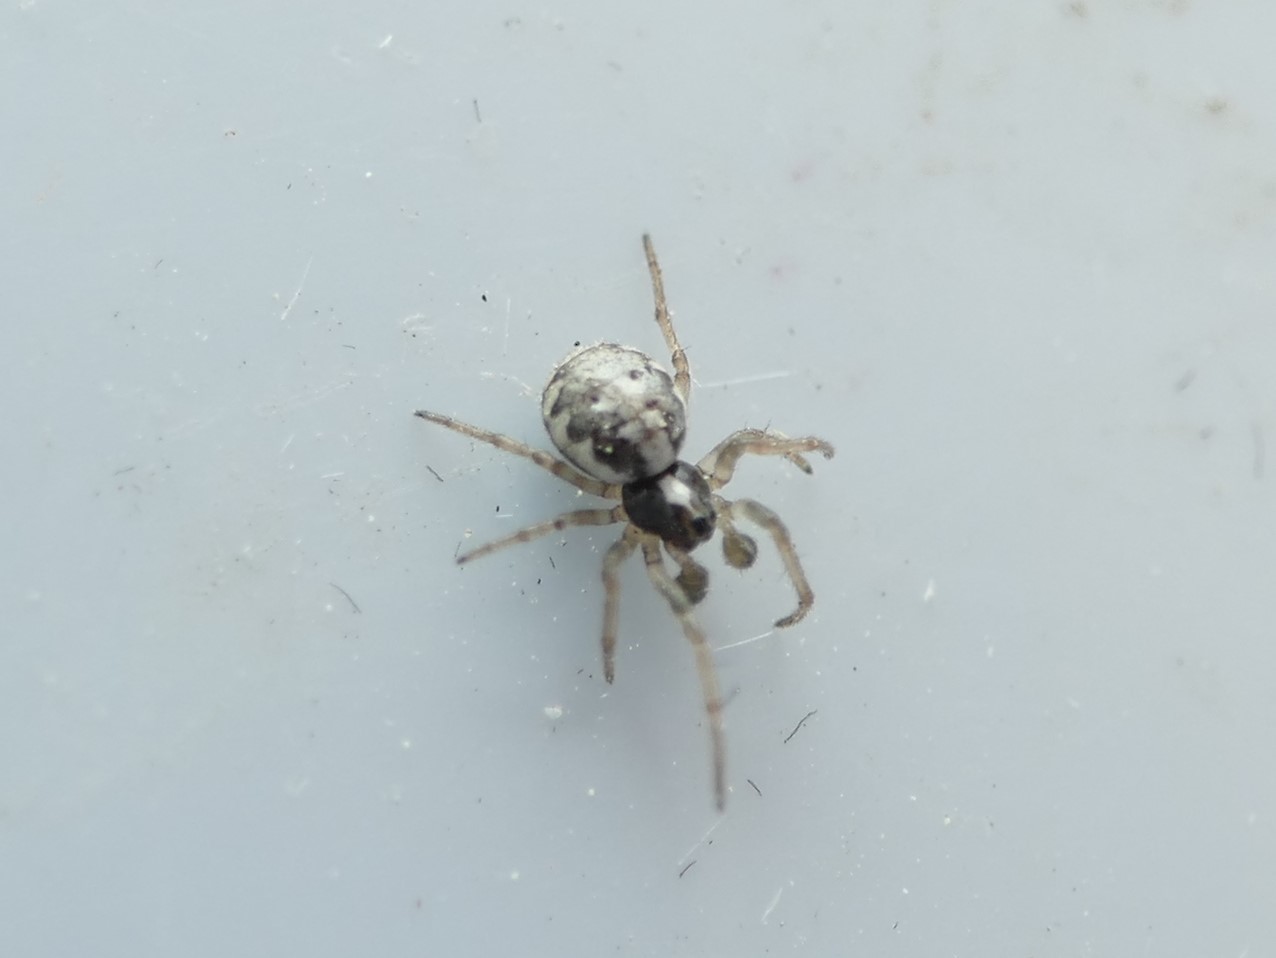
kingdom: Animalia
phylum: Arthropoda
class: Arachnida
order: Araneae
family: Araneidae
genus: Hypsosinga
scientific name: Hypsosinga albovittata
